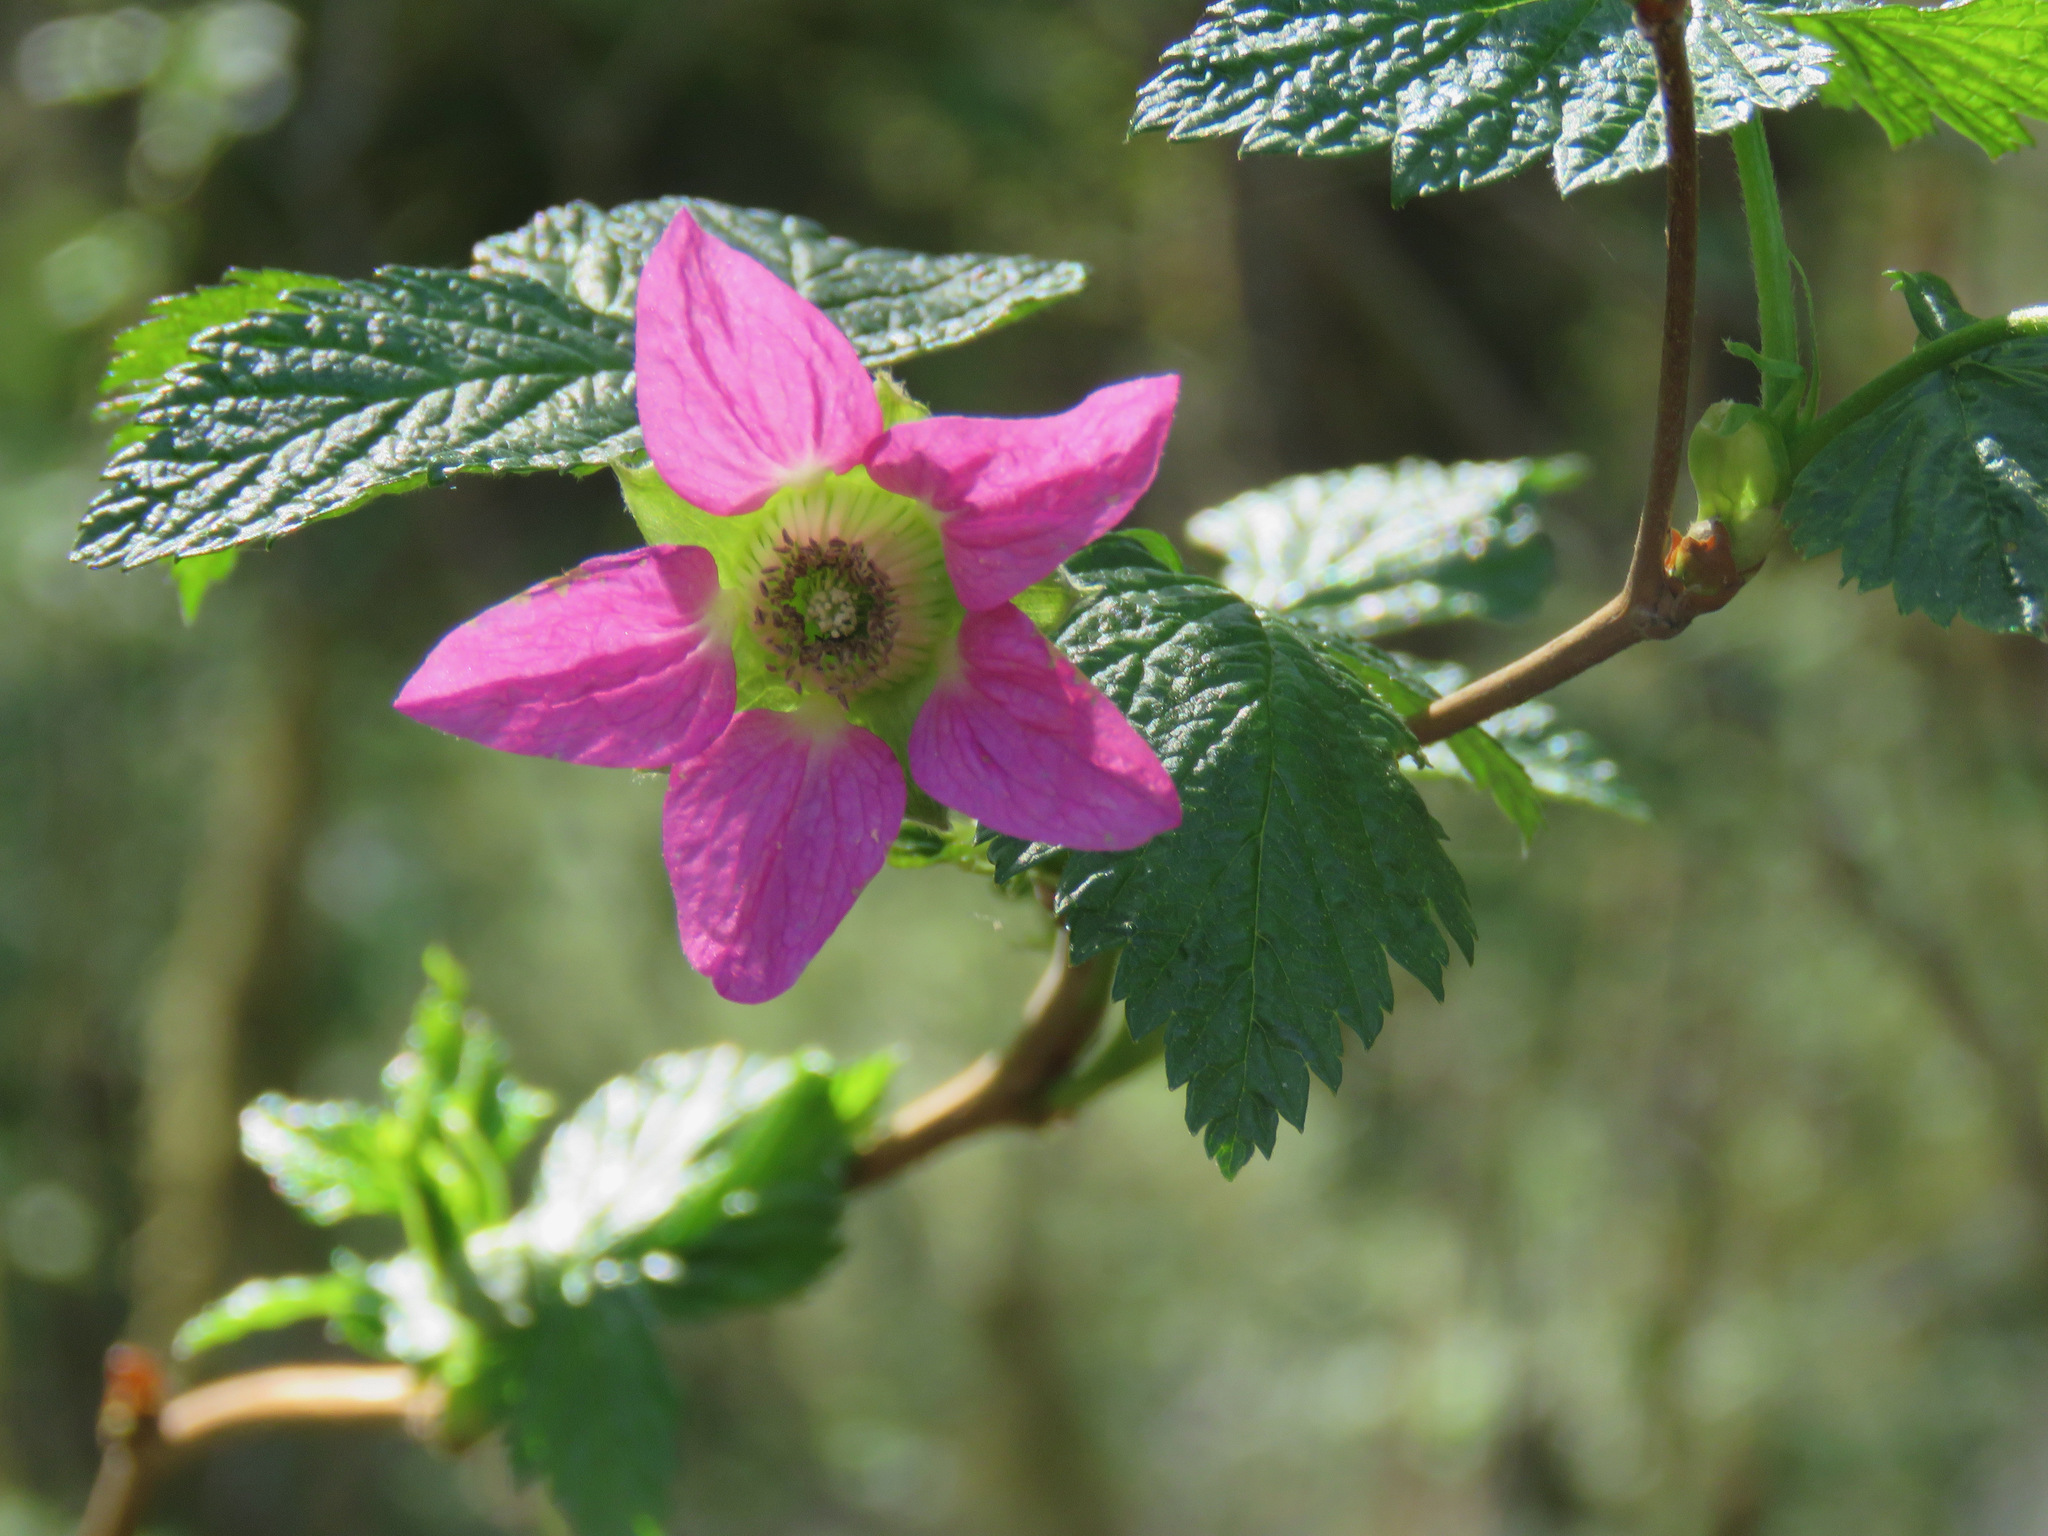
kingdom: Plantae
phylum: Tracheophyta
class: Magnoliopsida
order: Rosales
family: Rosaceae
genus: Rubus
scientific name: Rubus spectabilis
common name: Salmonberry
